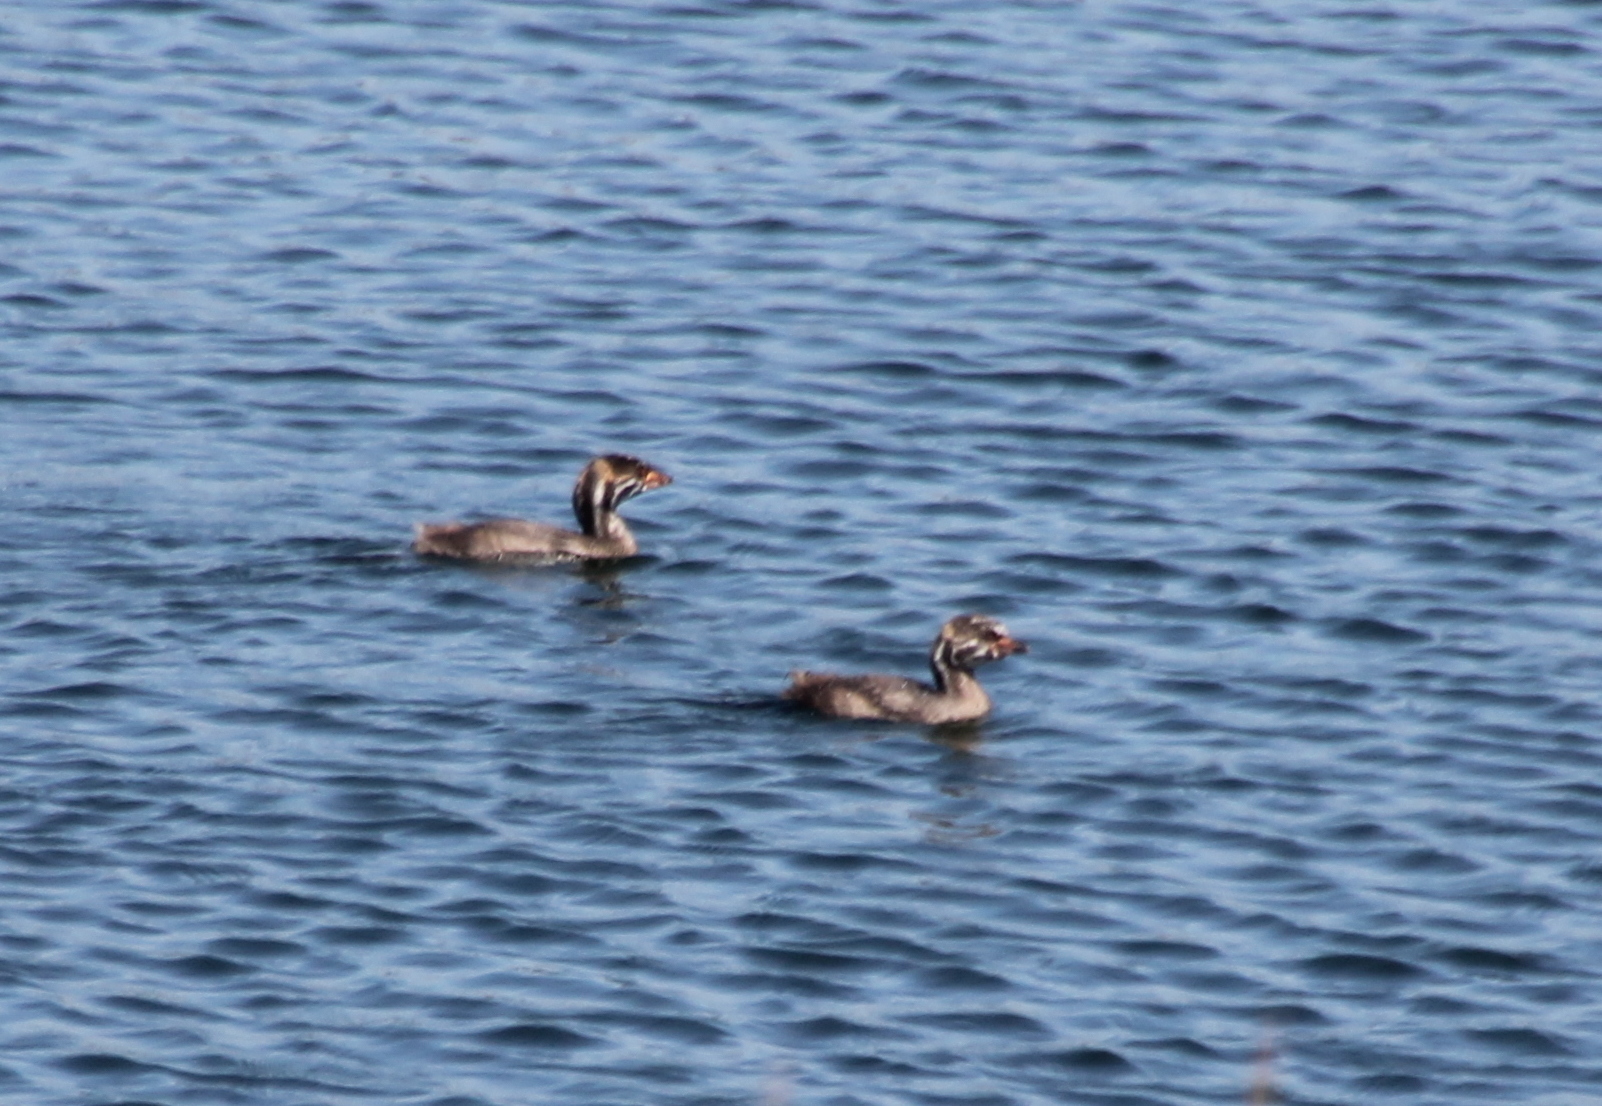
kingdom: Animalia
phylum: Chordata
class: Aves
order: Podicipediformes
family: Podicipedidae
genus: Podilymbus
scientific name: Podilymbus podiceps
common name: Pied-billed grebe
